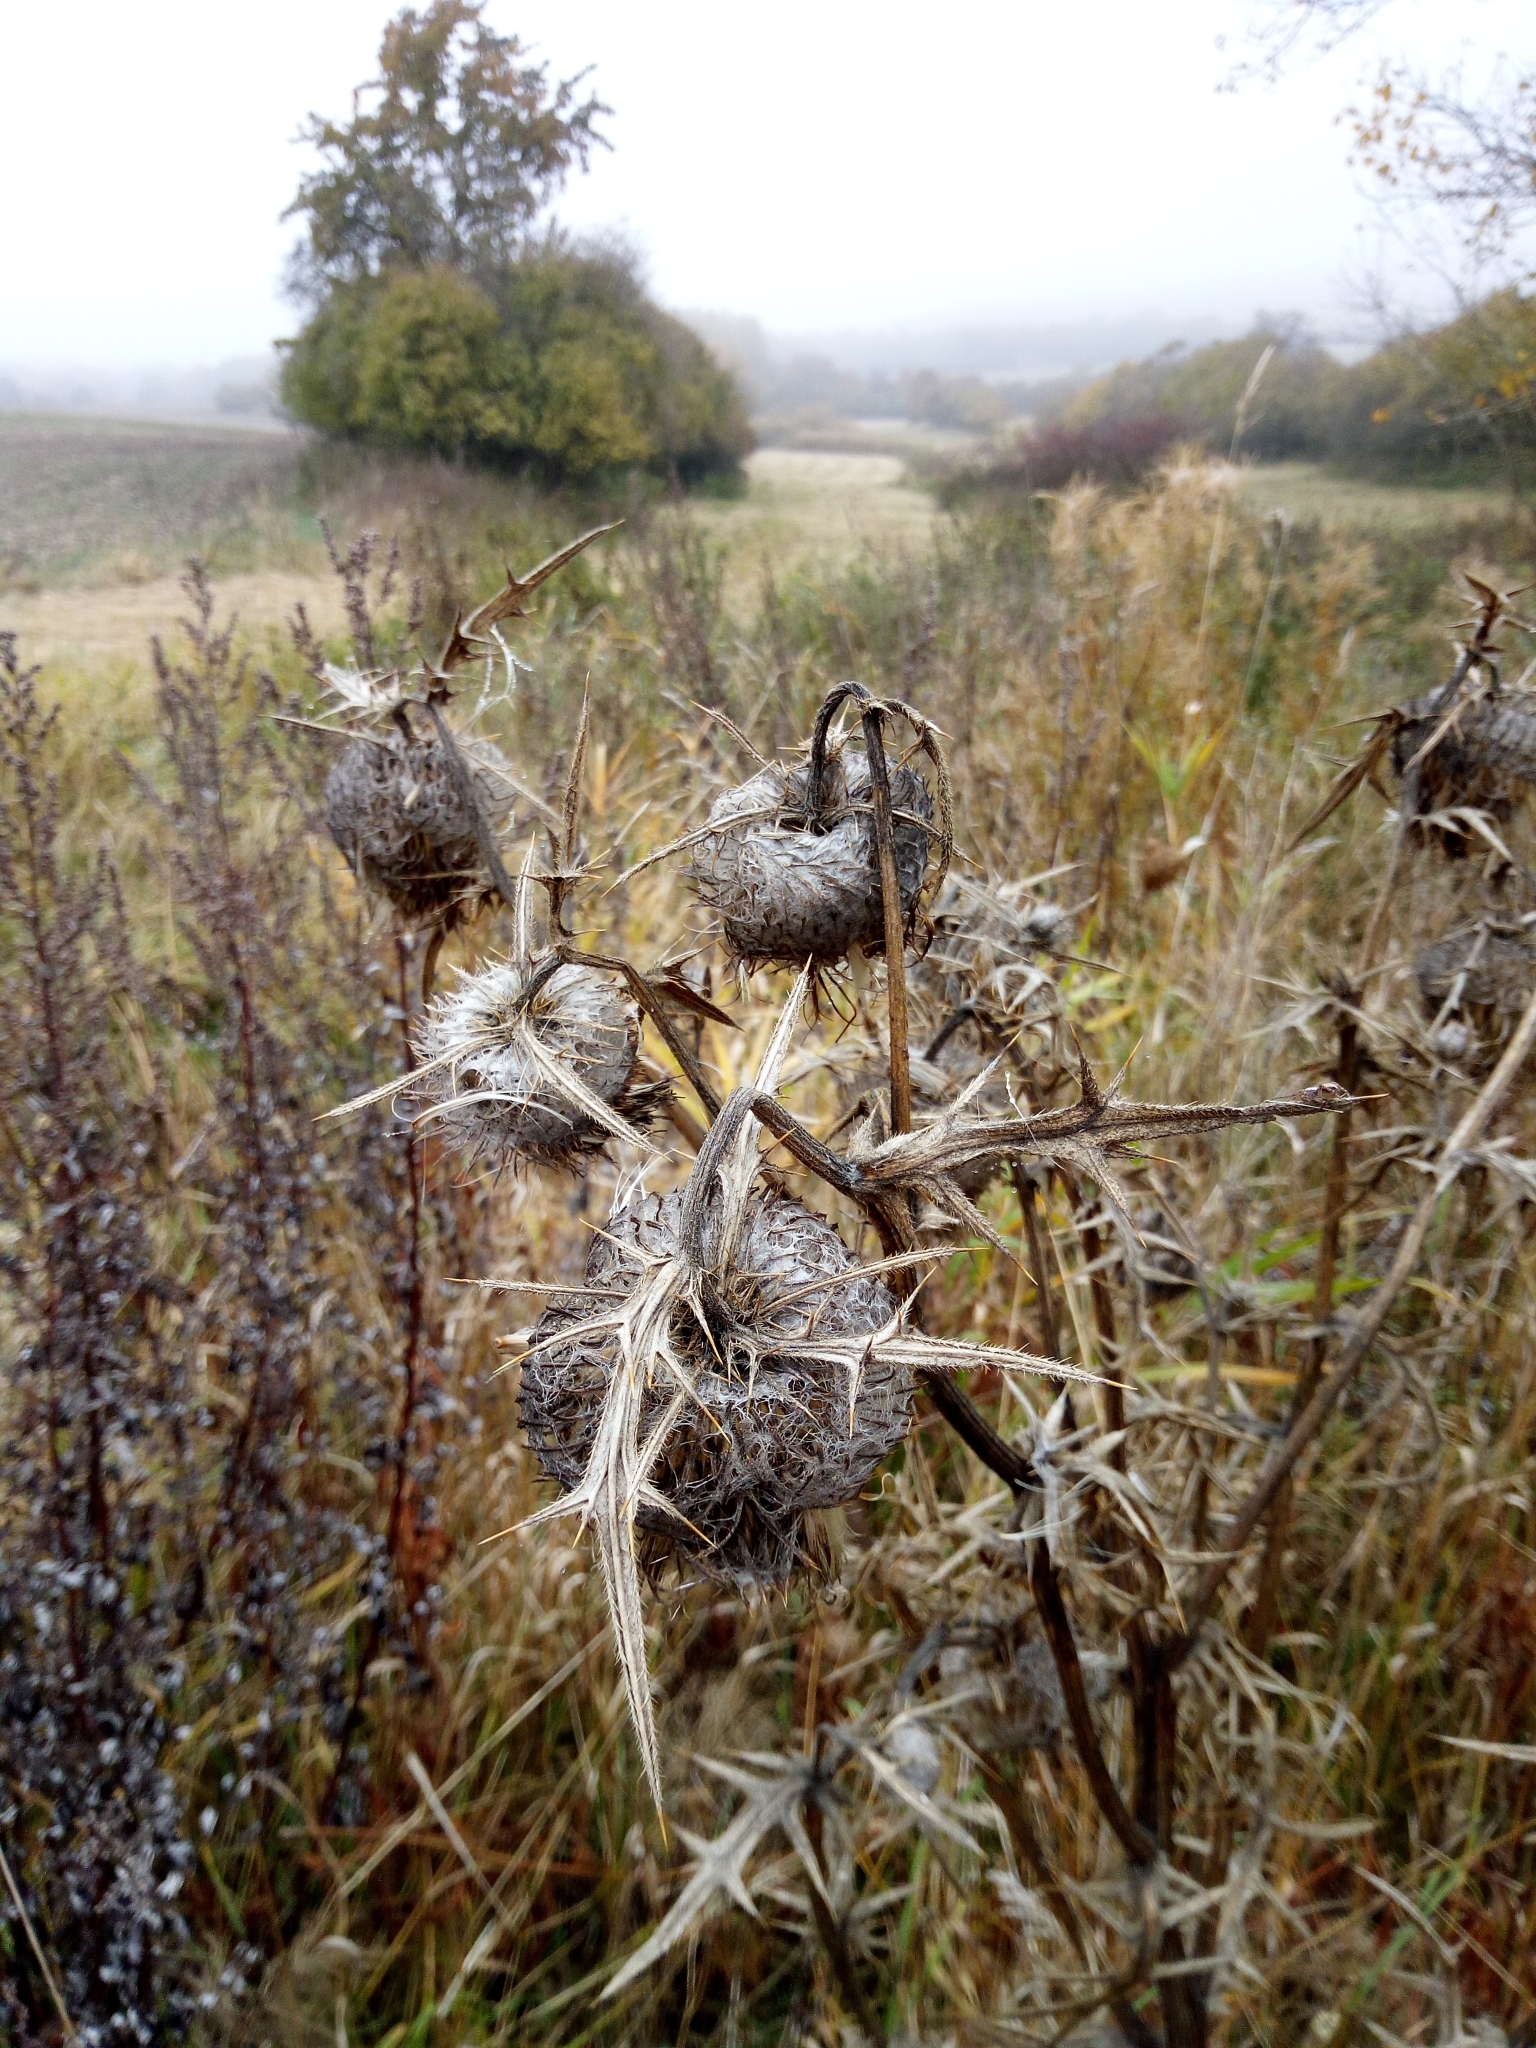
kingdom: Plantae
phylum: Tracheophyta
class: Magnoliopsida
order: Asterales
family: Asteraceae
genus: Lophiolepis
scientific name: Lophiolepis eriophora
